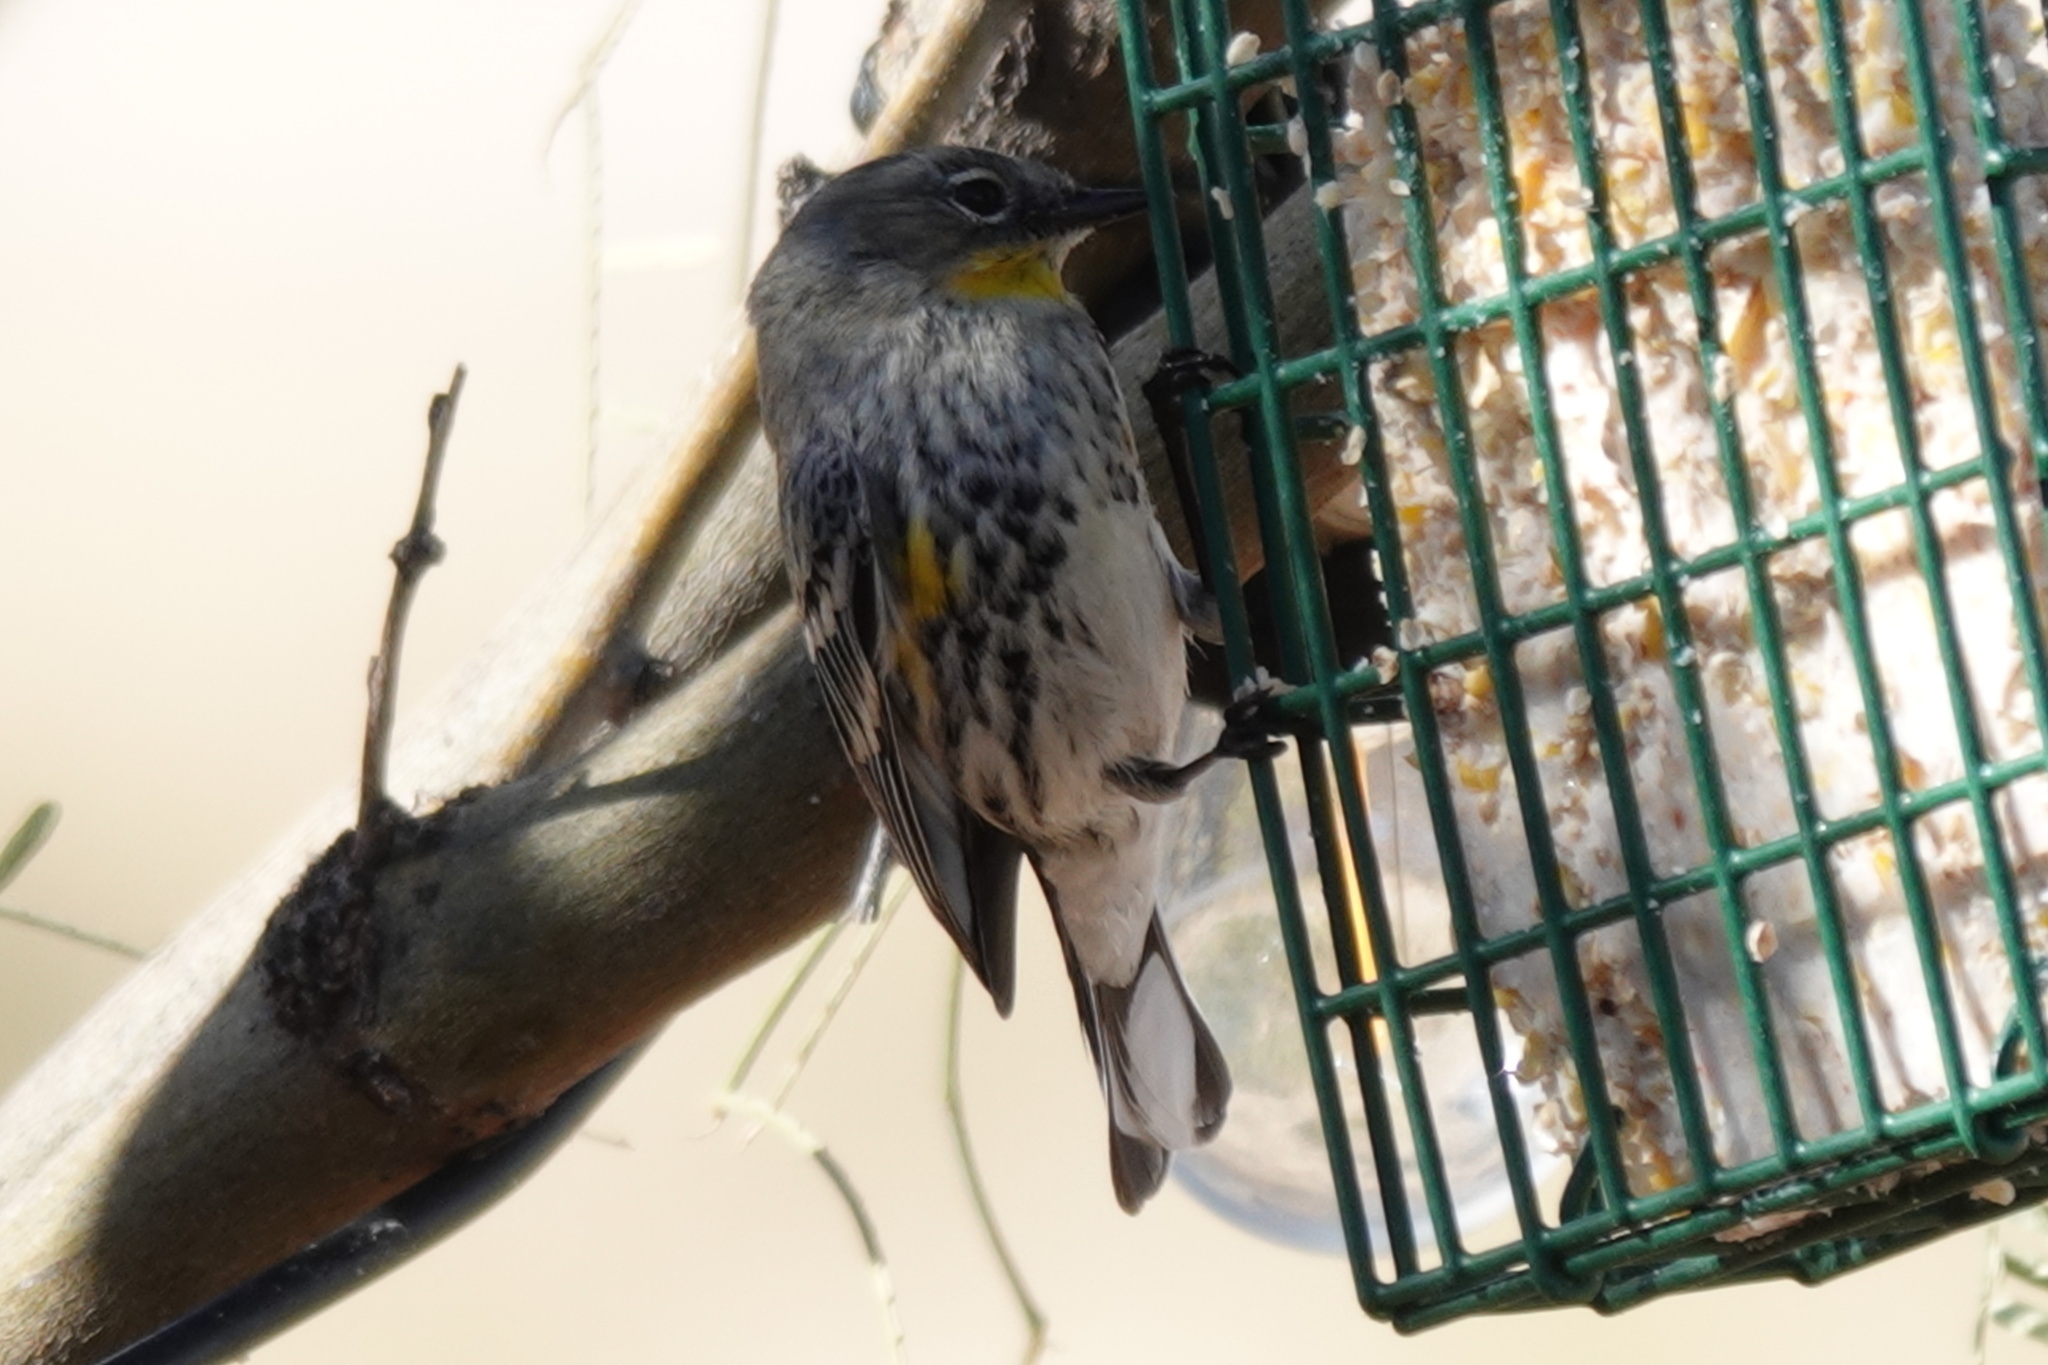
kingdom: Animalia
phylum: Chordata
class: Aves
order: Passeriformes
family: Parulidae
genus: Setophaga
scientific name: Setophaga coronata
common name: Myrtle warbler
